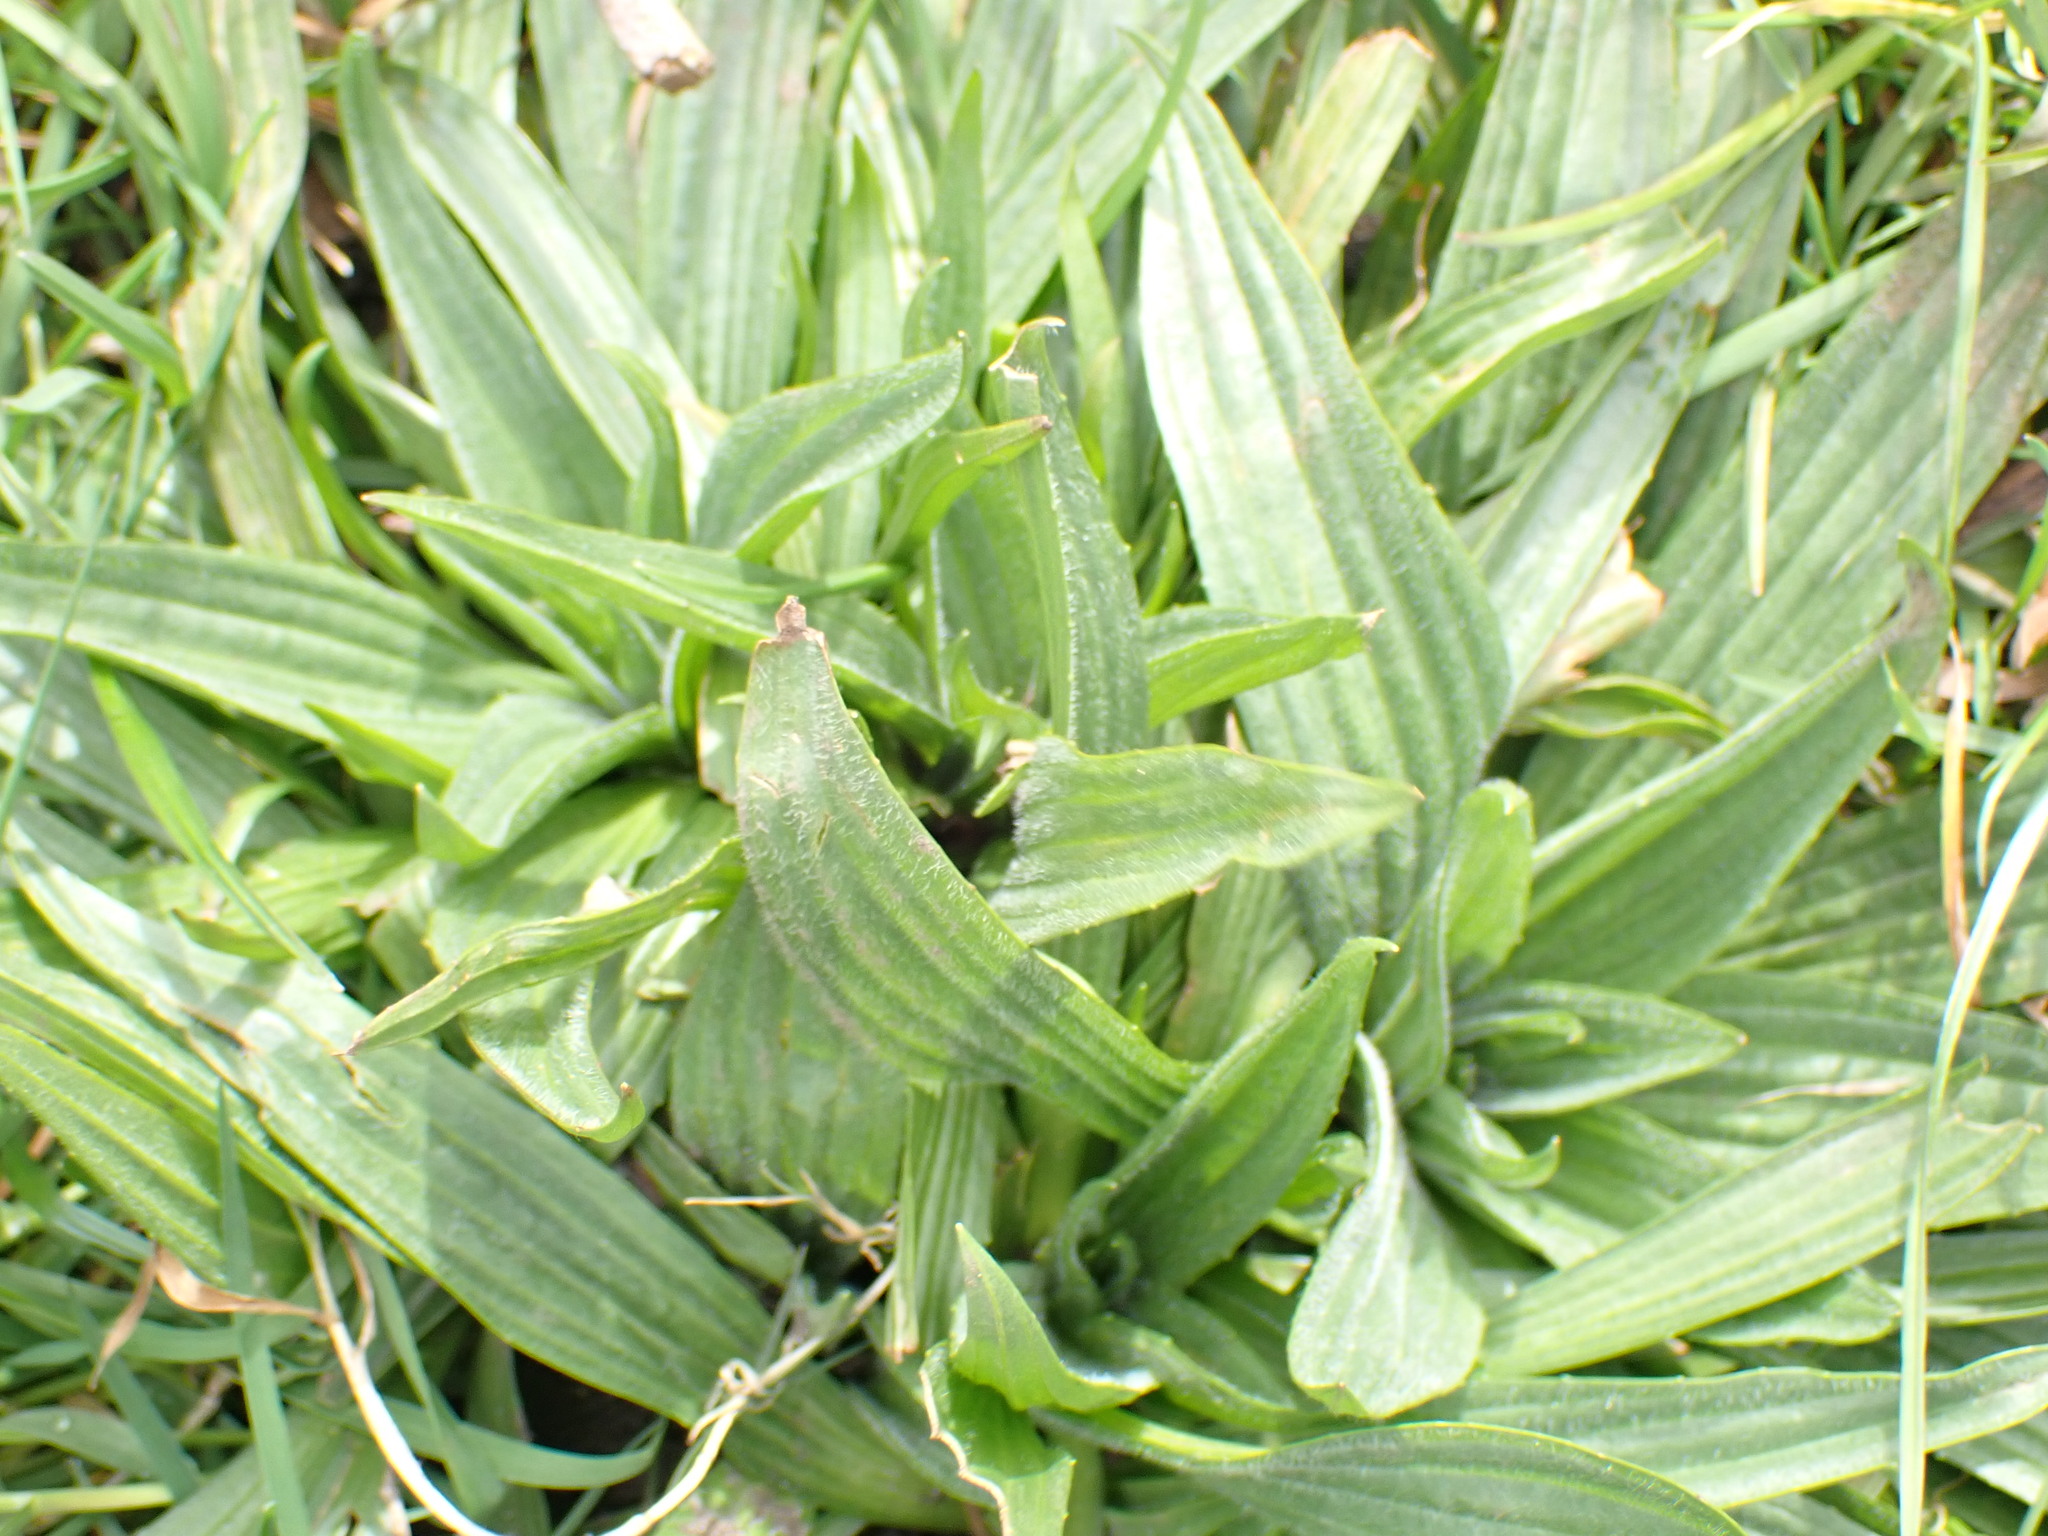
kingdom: Plantae
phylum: Tracheophyta
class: Magnoliopsida
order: Lamiales
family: Plantaginaceae
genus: Plantago
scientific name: Plantago lanceolata
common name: Ribwort plantain
